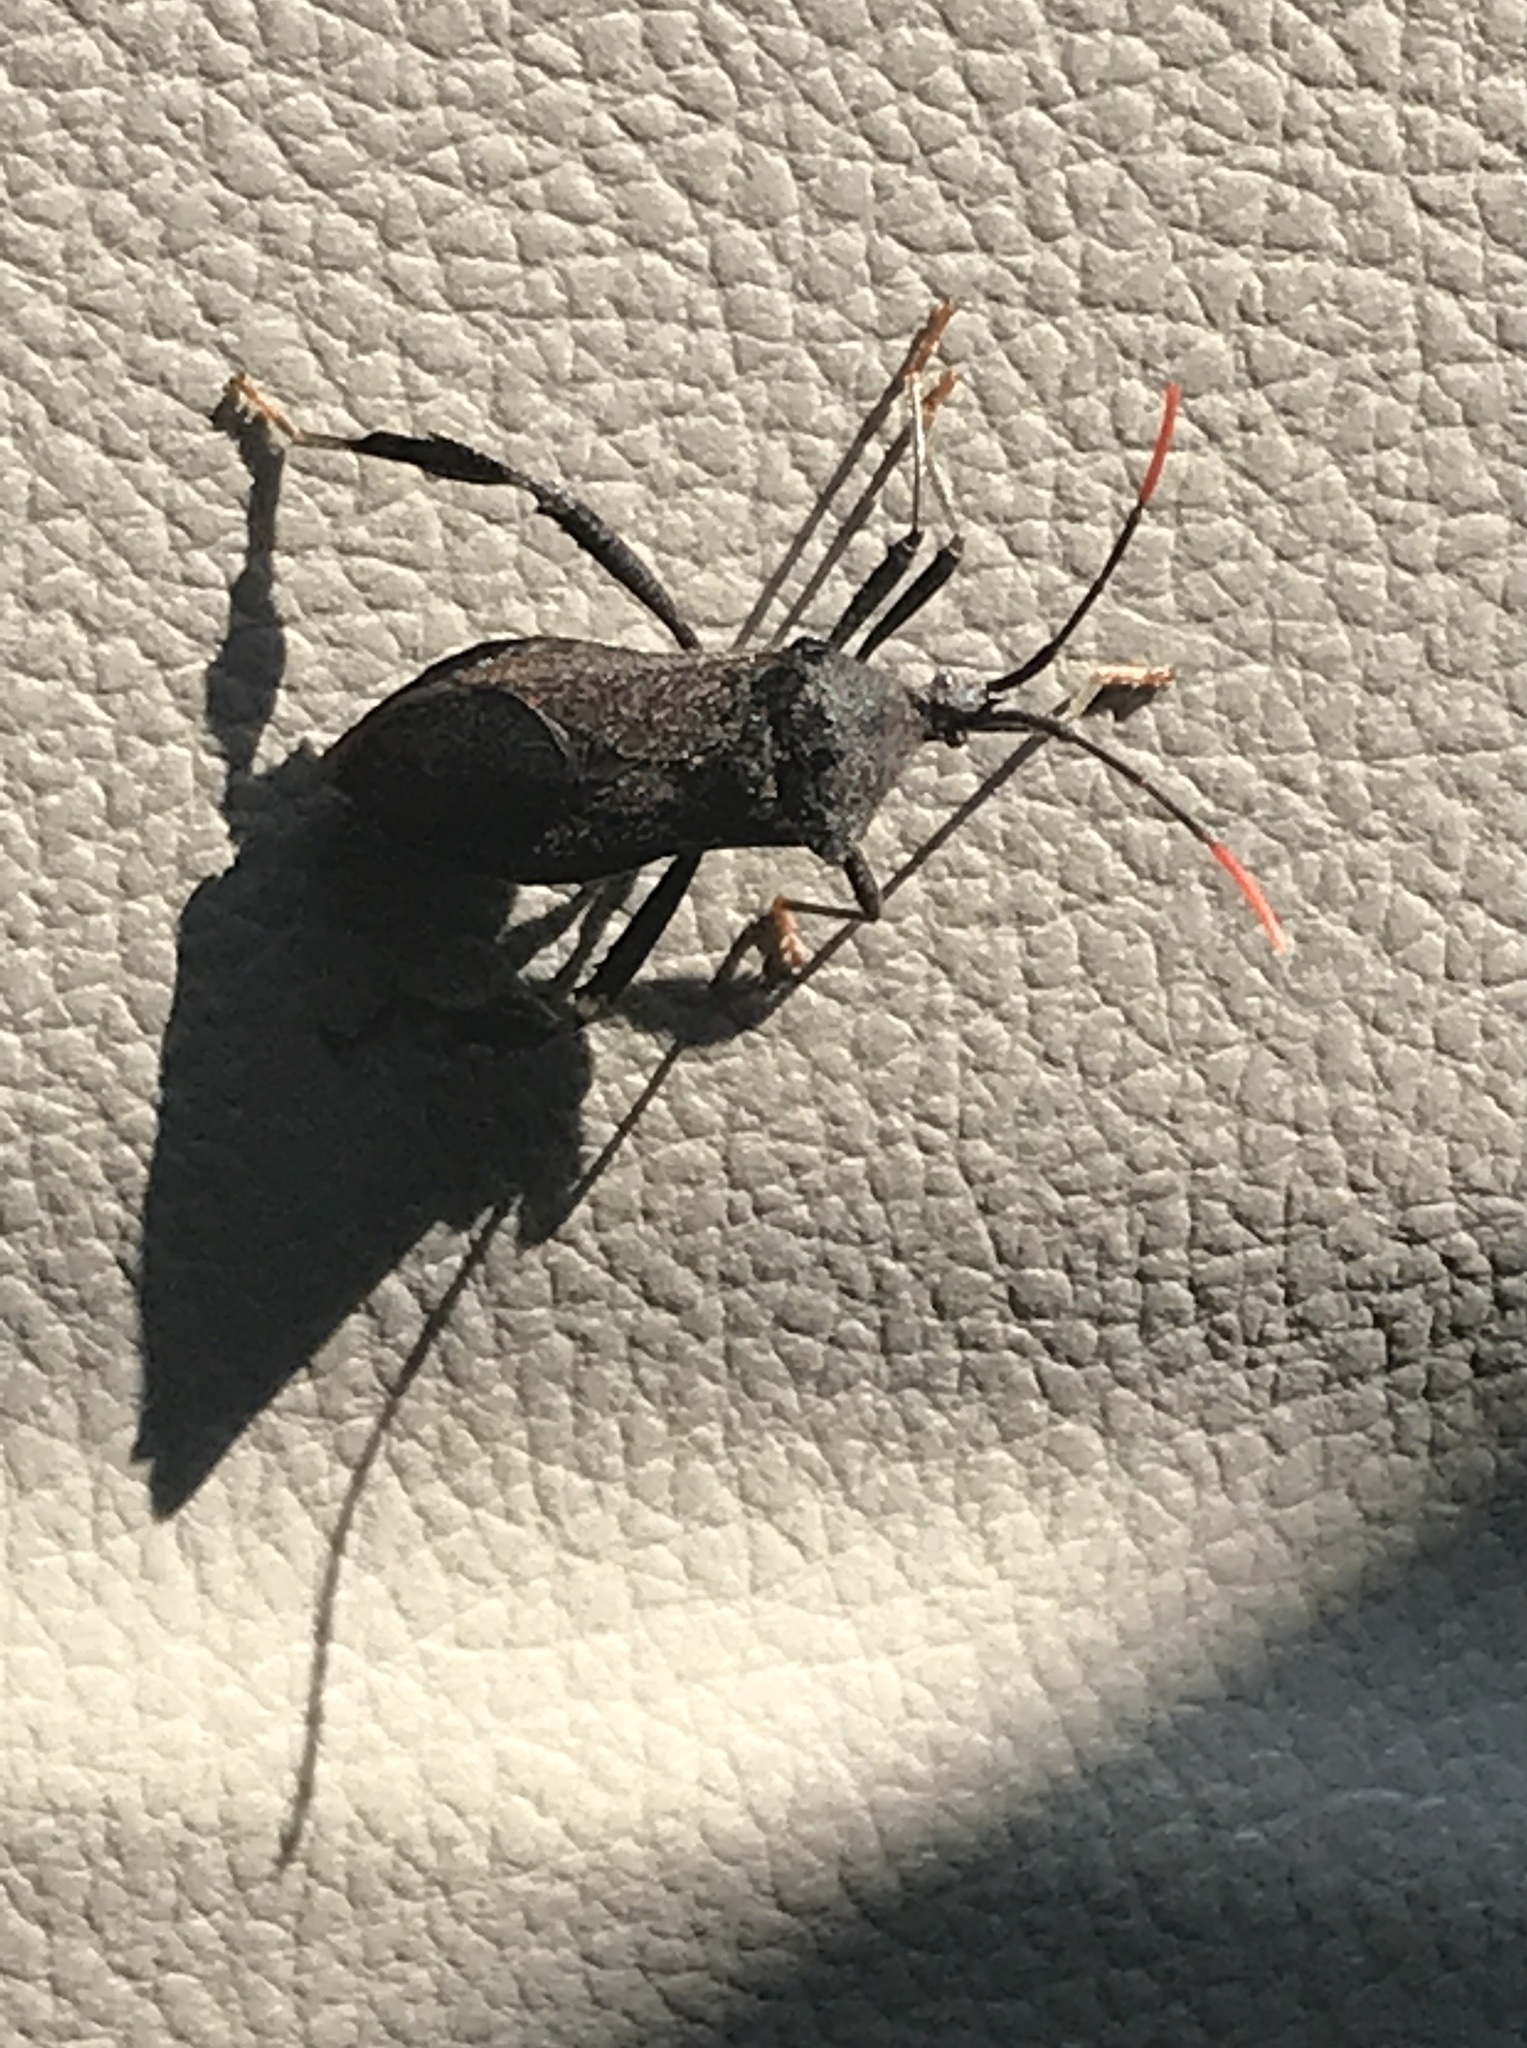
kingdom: Animalia
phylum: Arthropoda
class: Insecta
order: Hemiptera
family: Coreidae
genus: Acanthocephala
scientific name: Acanthocephala terminalis
